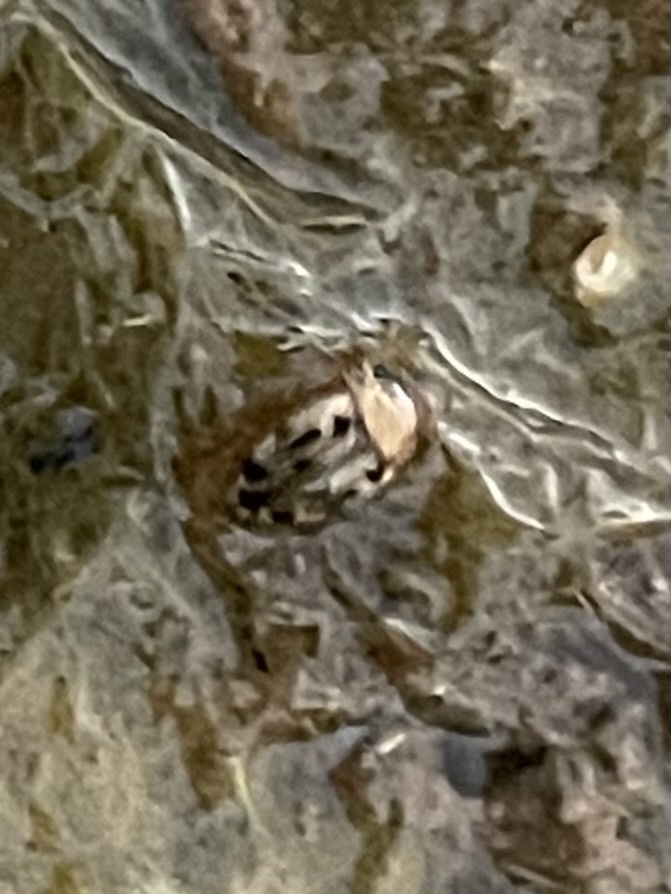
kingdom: Animalia
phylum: Arthropoda
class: Insecta
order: Coleoptera
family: Dytiscidae
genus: Neoporus
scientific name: Neoporus dimidiatus
